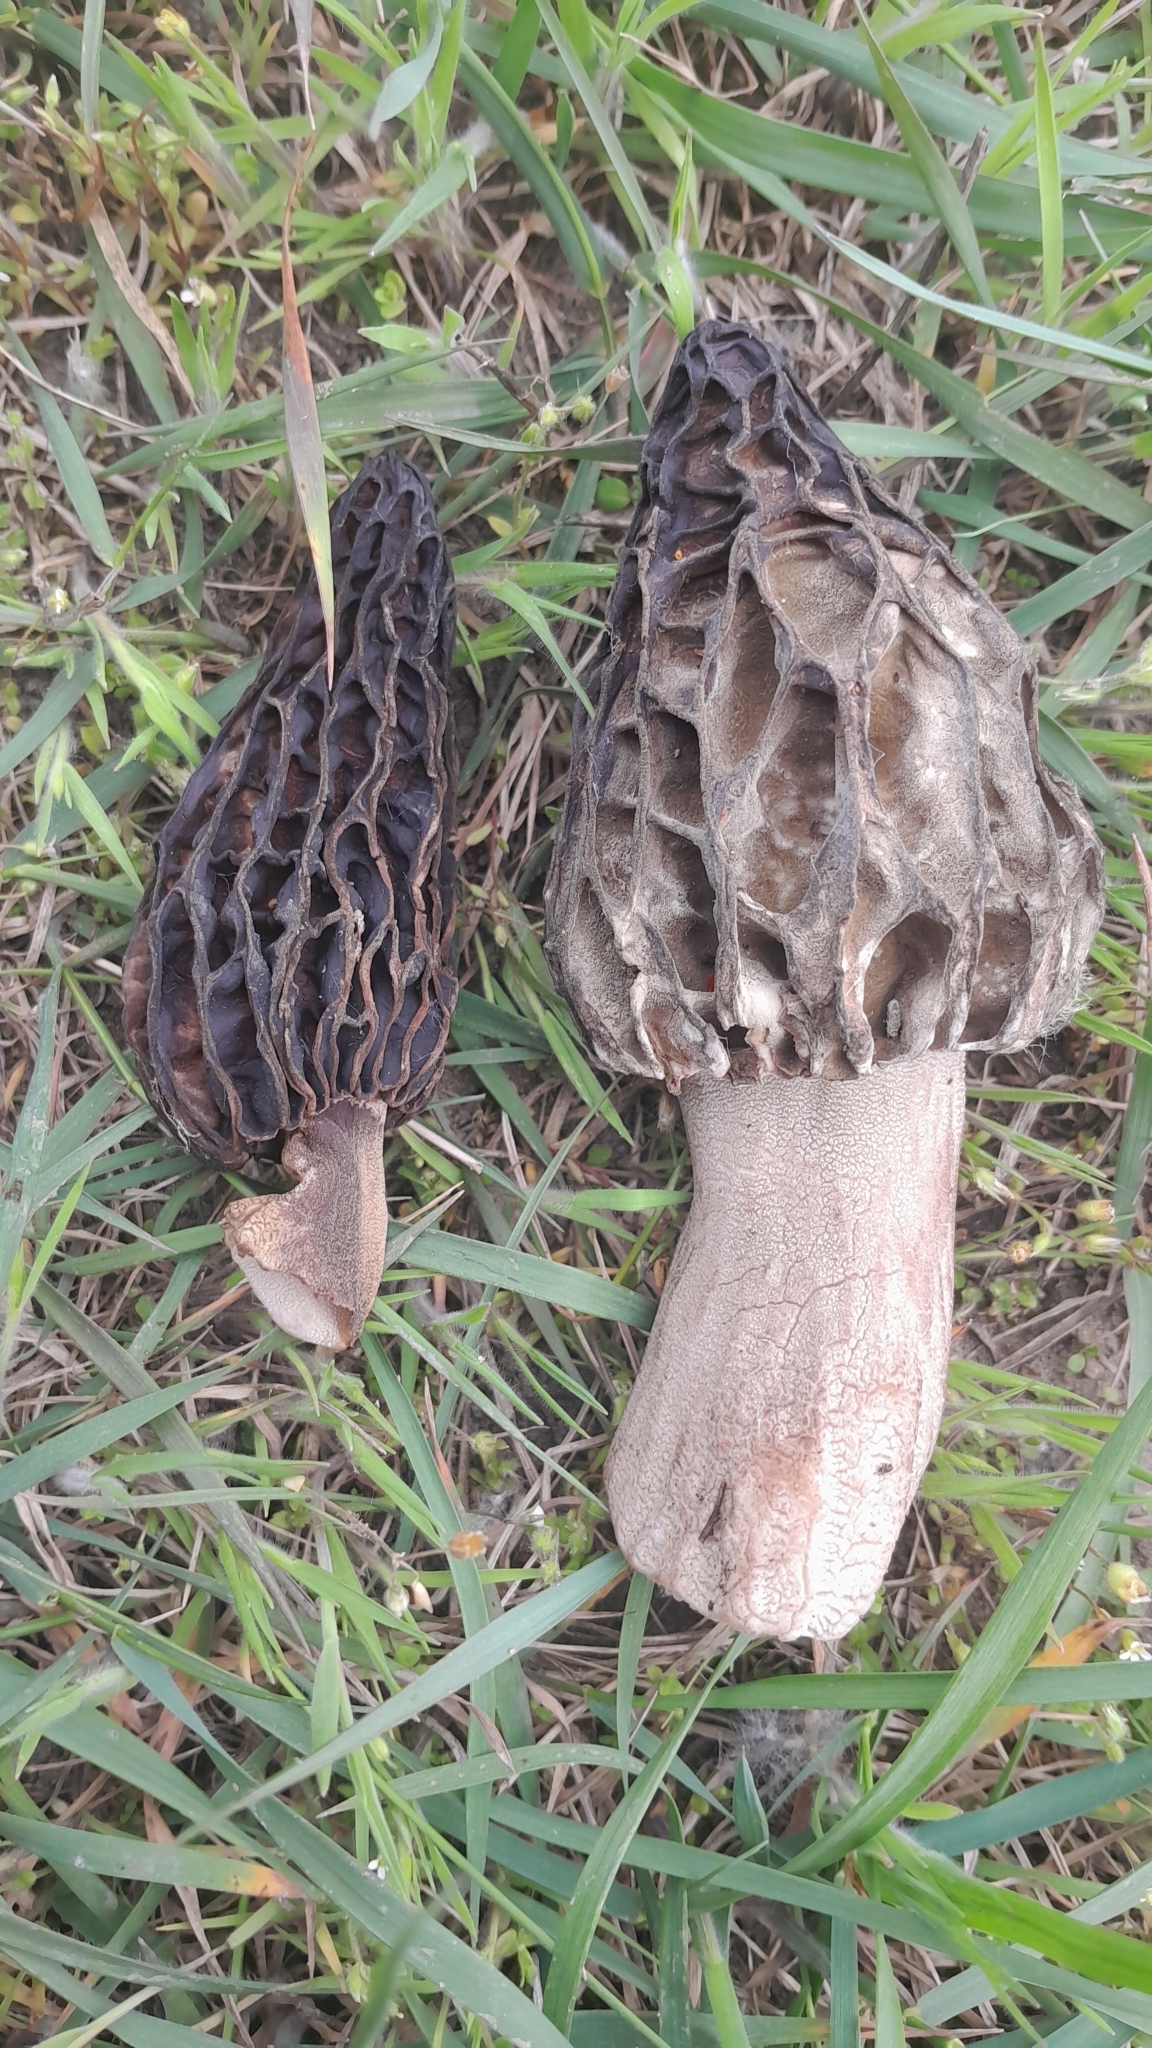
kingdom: Fungi
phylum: Ascomycota
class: Pezizomycetes
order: Pezizales
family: Morchellaceae
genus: Morchella
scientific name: Morchella deliciosa
